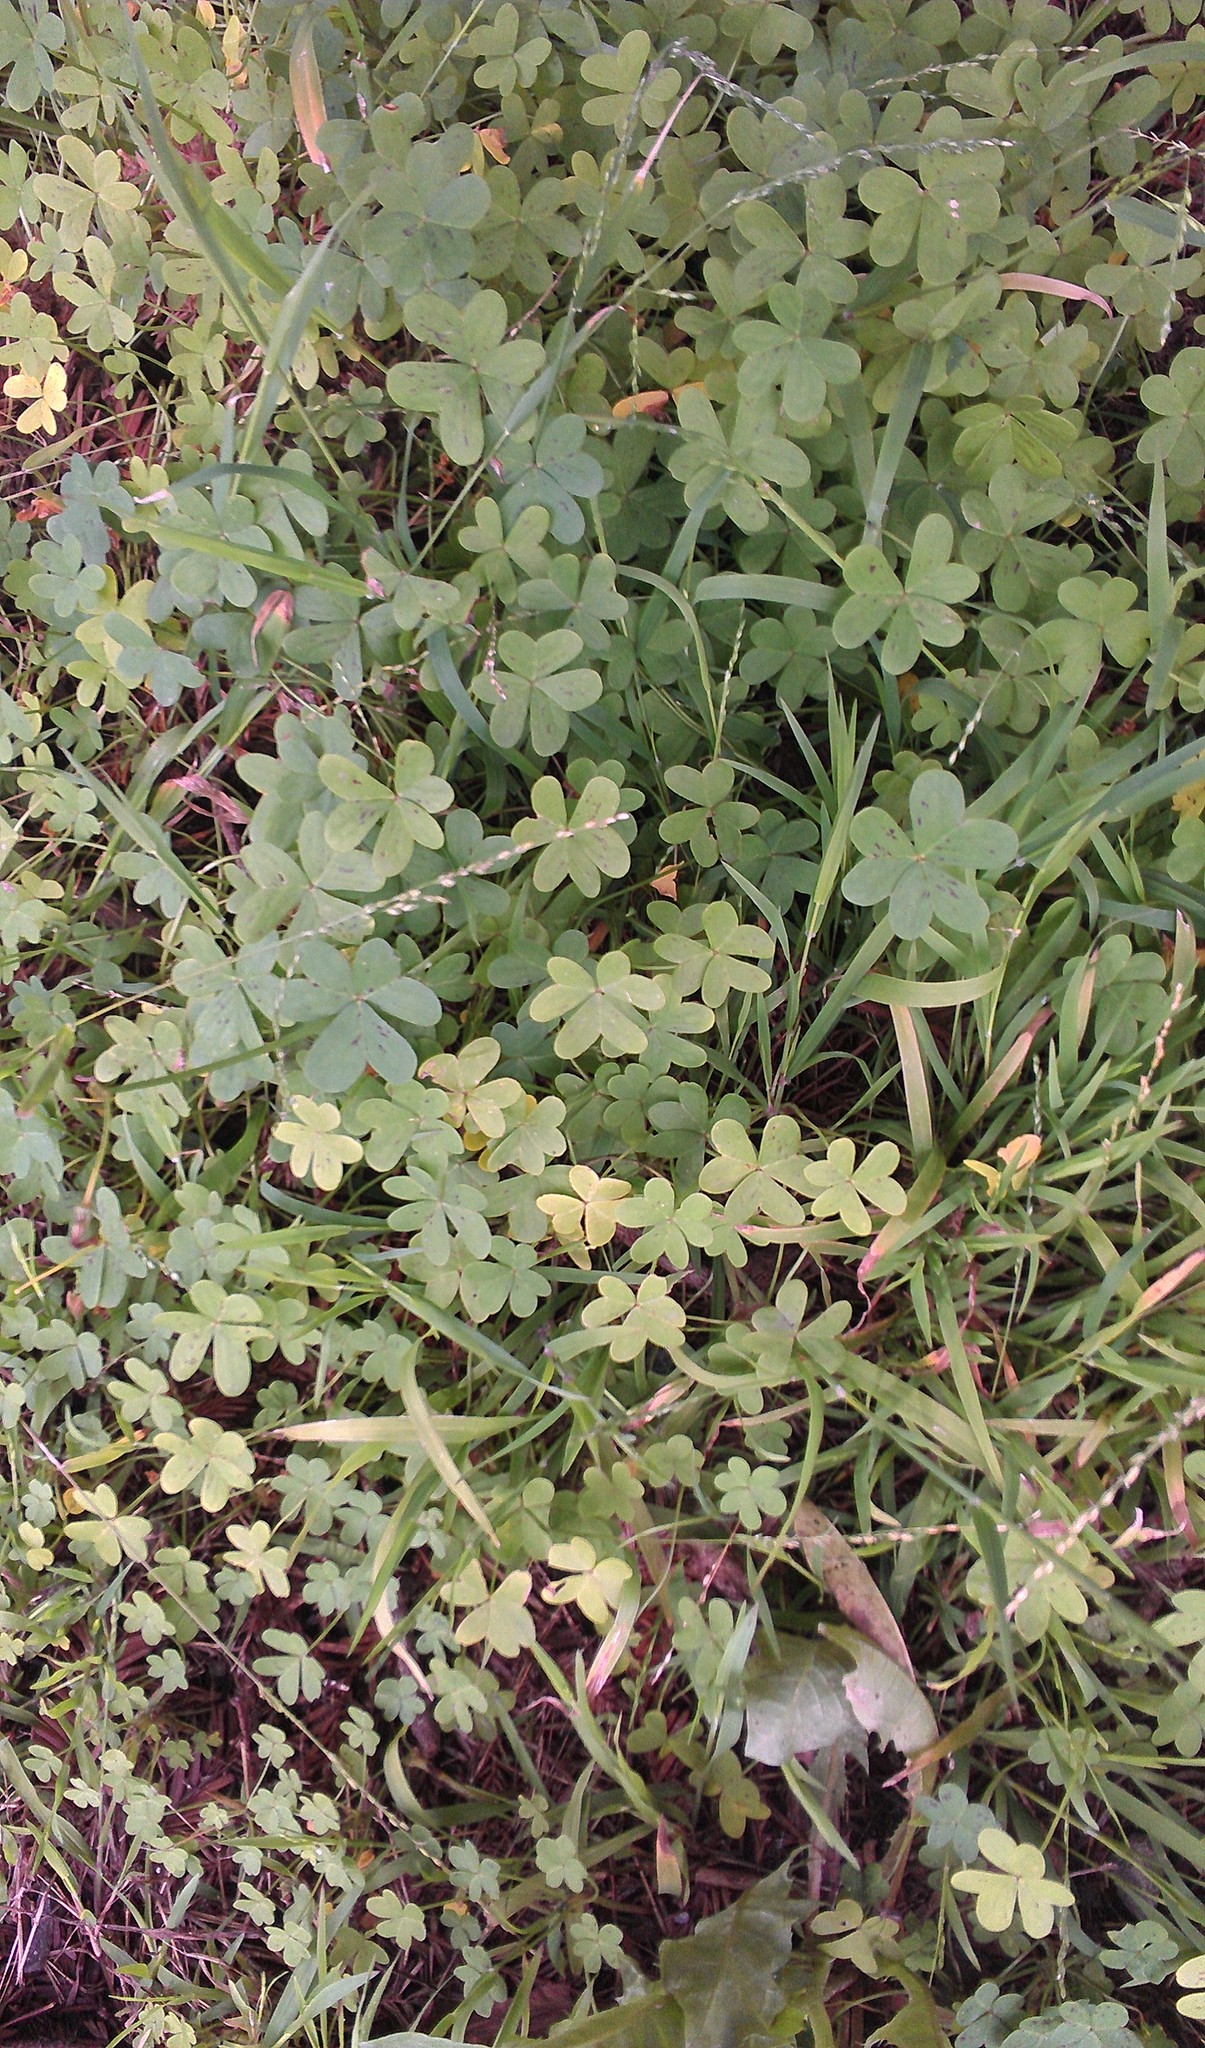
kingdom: Plantae
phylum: Tracheophyta
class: Magnoliopsida
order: Oxalidales
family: Oxalidaceae
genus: Oxalis
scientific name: Oxalis pes-caprae
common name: Bermuda-buttercup
